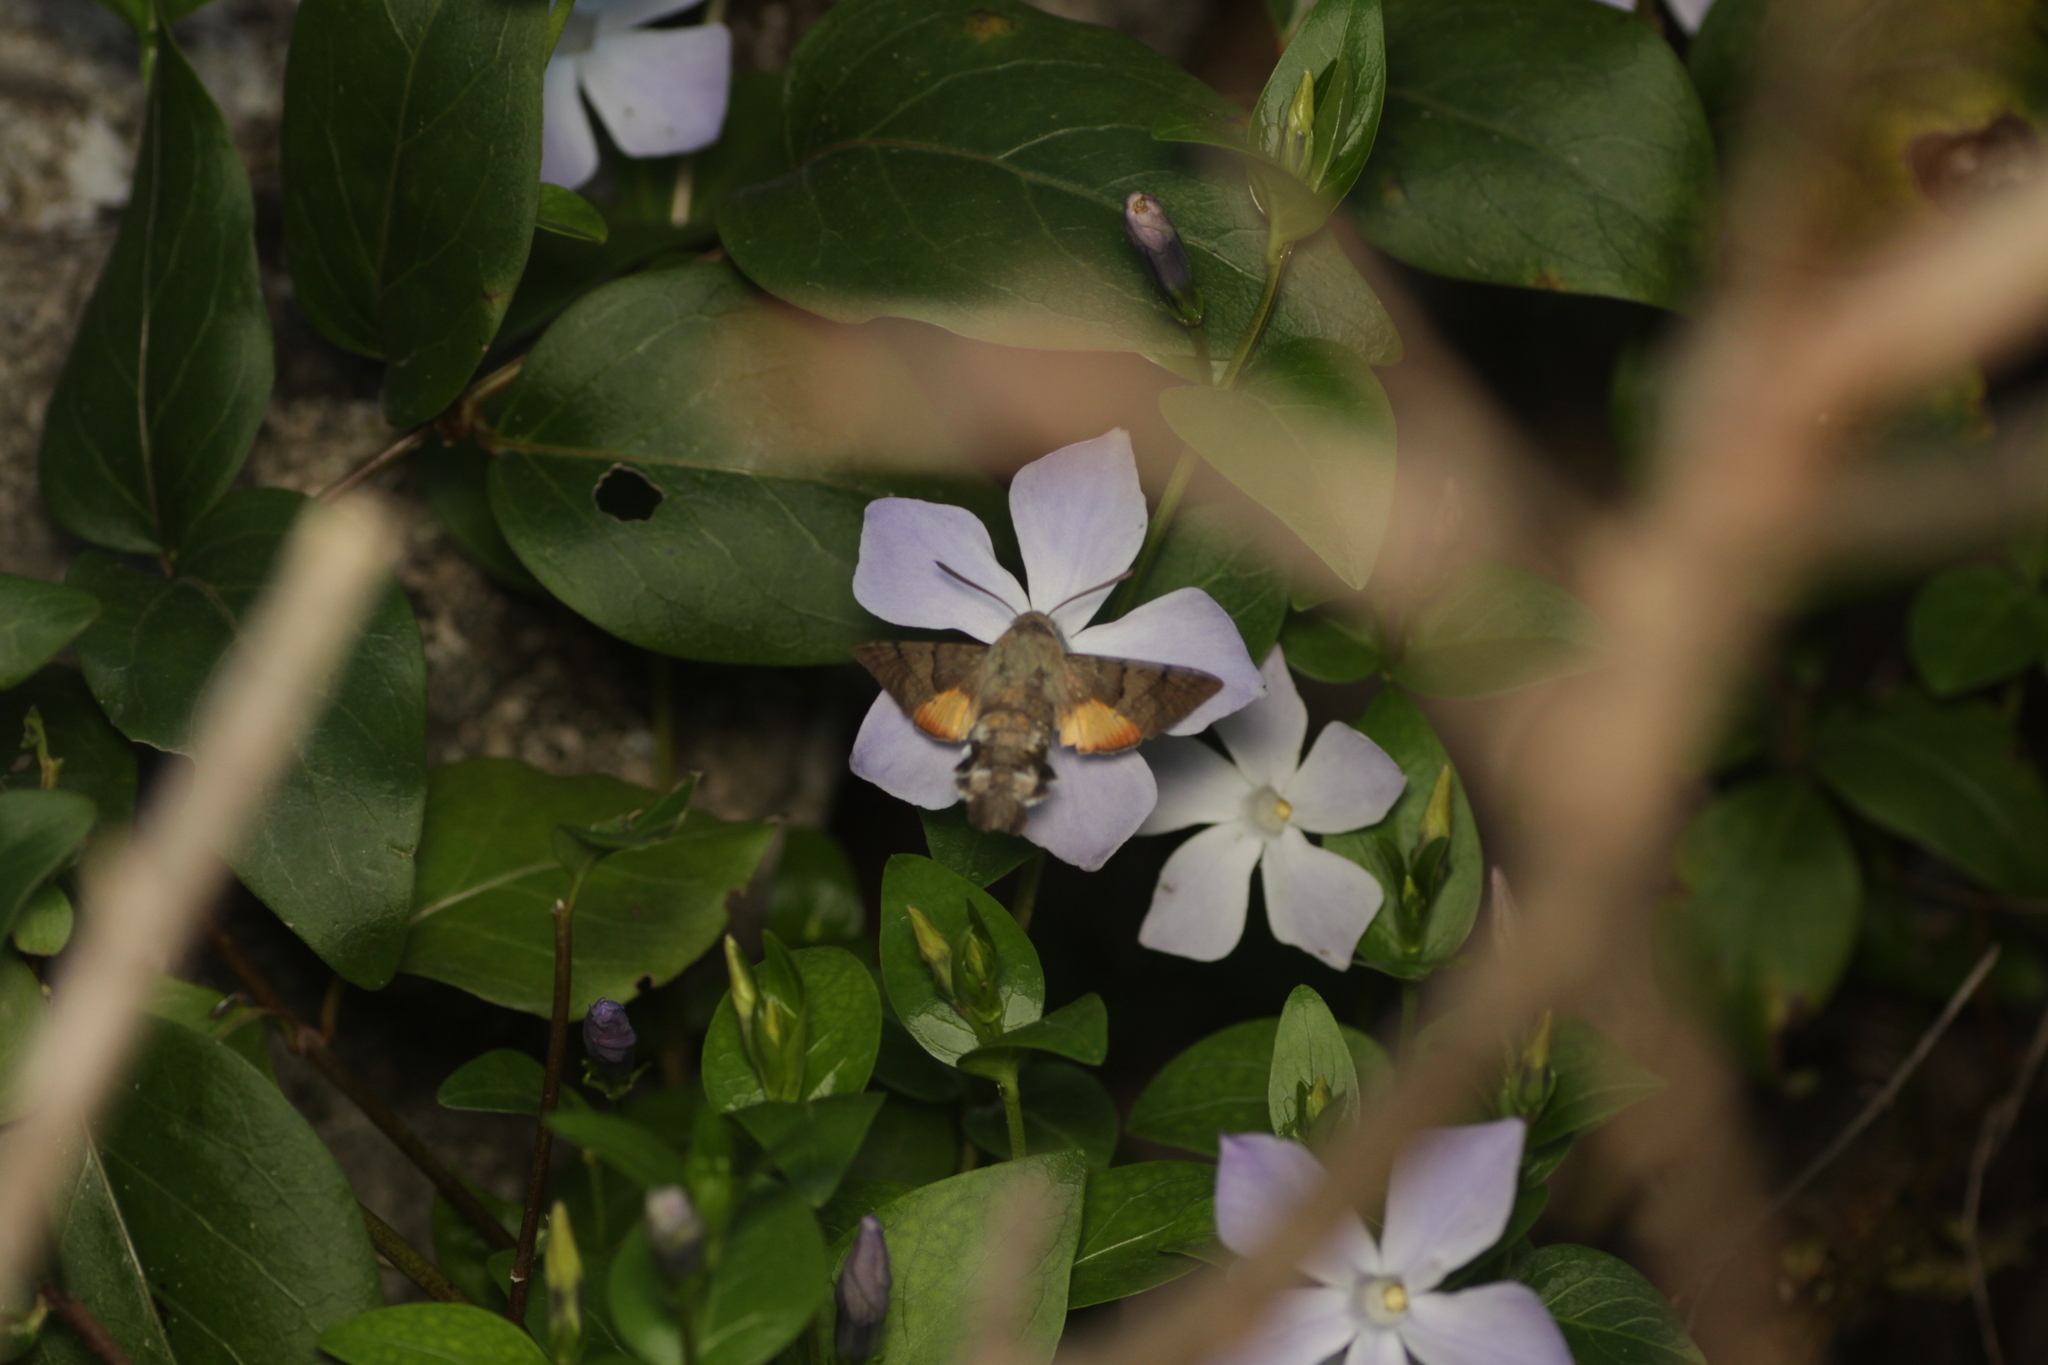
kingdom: Animalia
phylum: Arthropoda
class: Insecta
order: Lepidoptera
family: Sphingidae
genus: Macroglossum
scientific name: Macroglossum stellatarum
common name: Humming-bird hawk-moth
